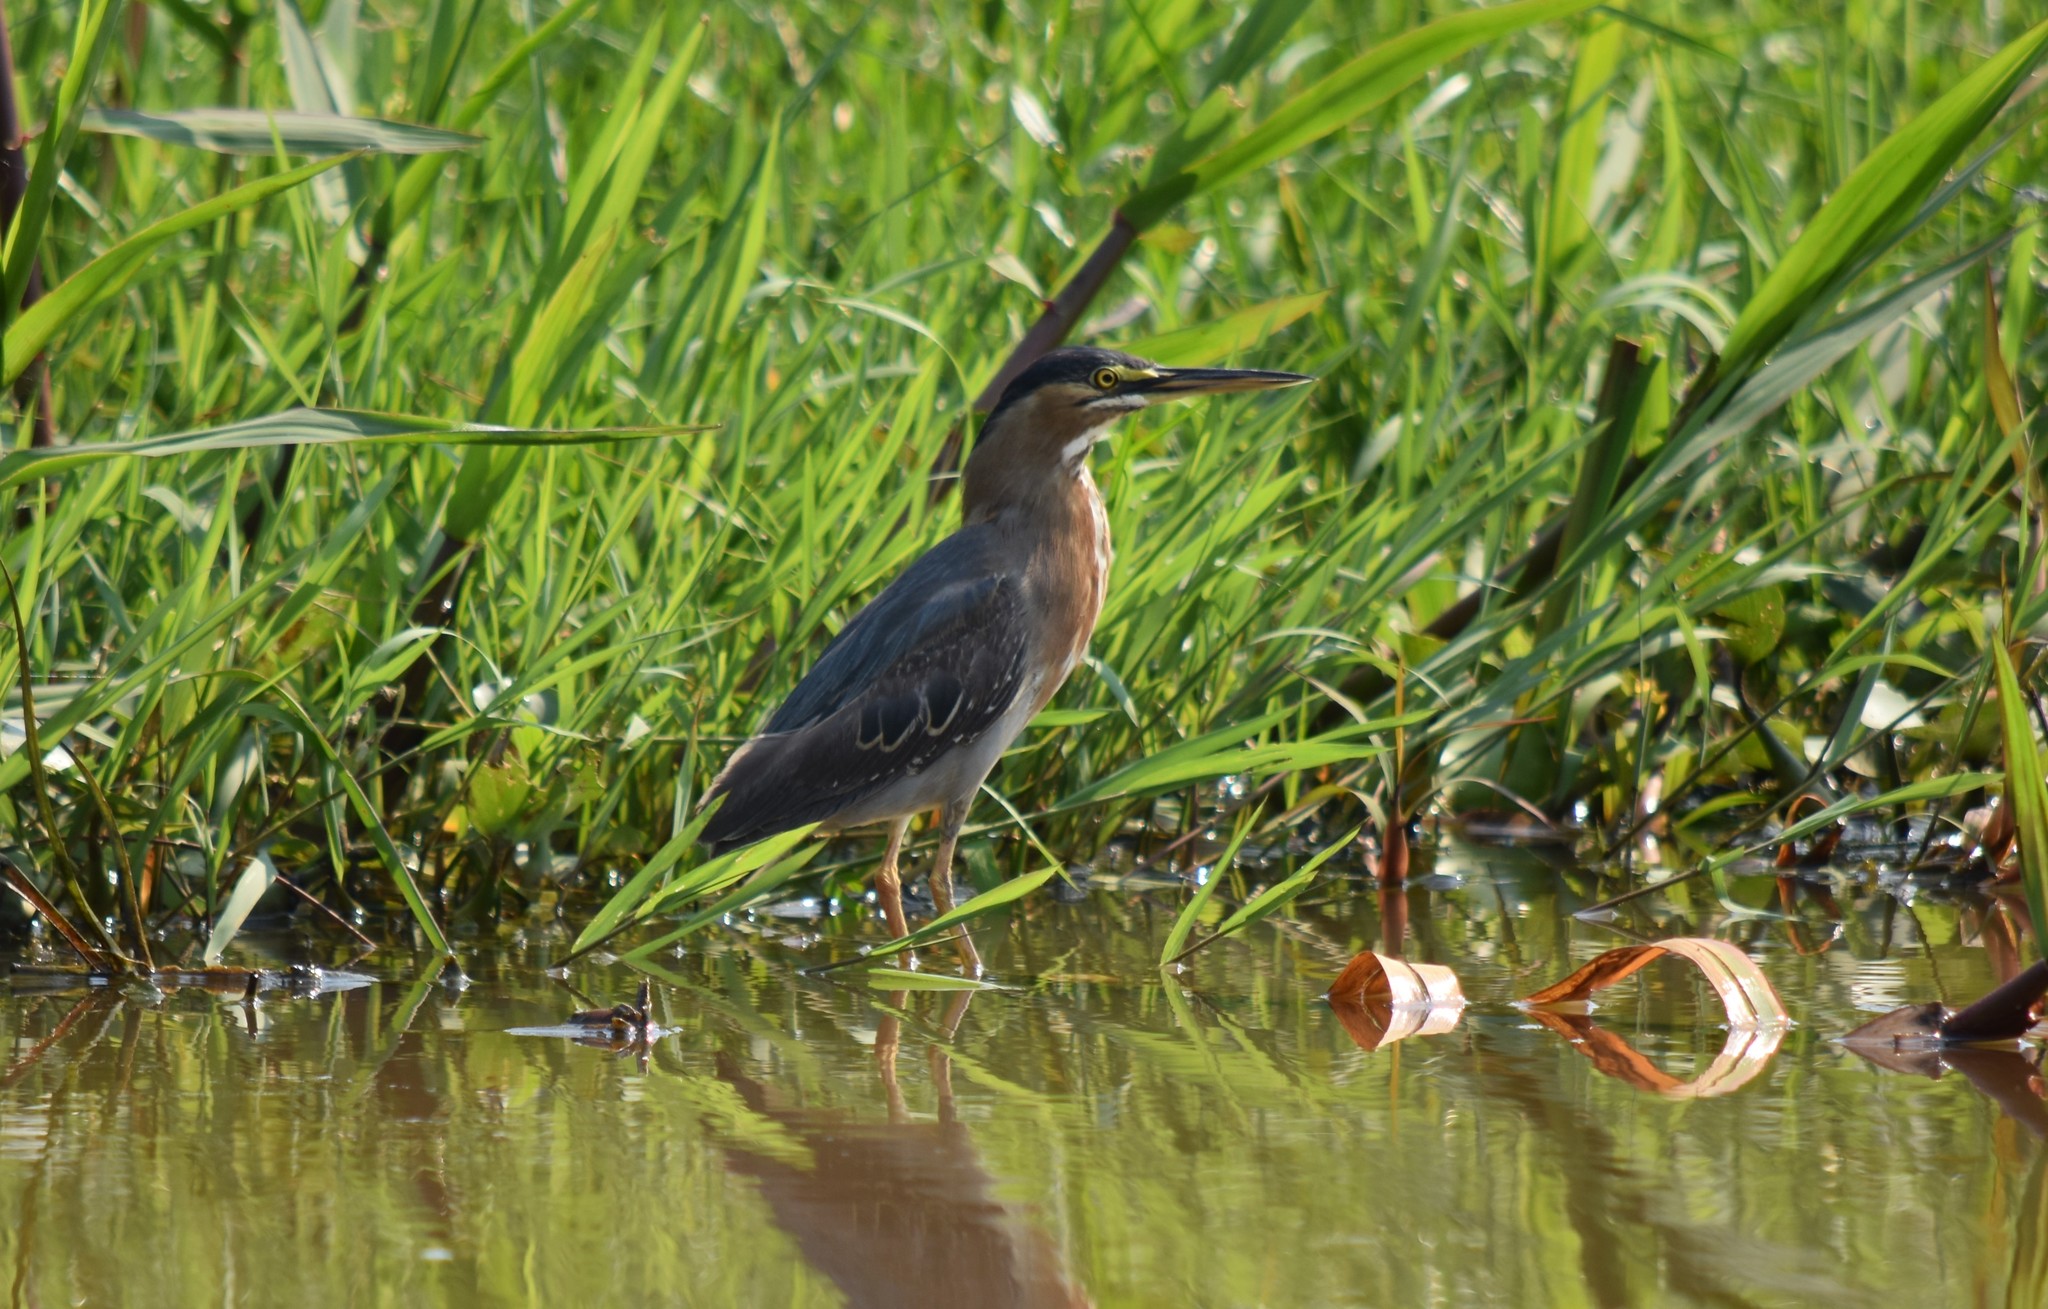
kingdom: Animalia
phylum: Chordata
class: Aves
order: Pelecaniformes
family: Ardeidae
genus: Butorides
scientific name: Butorides striata
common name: Striated heron
